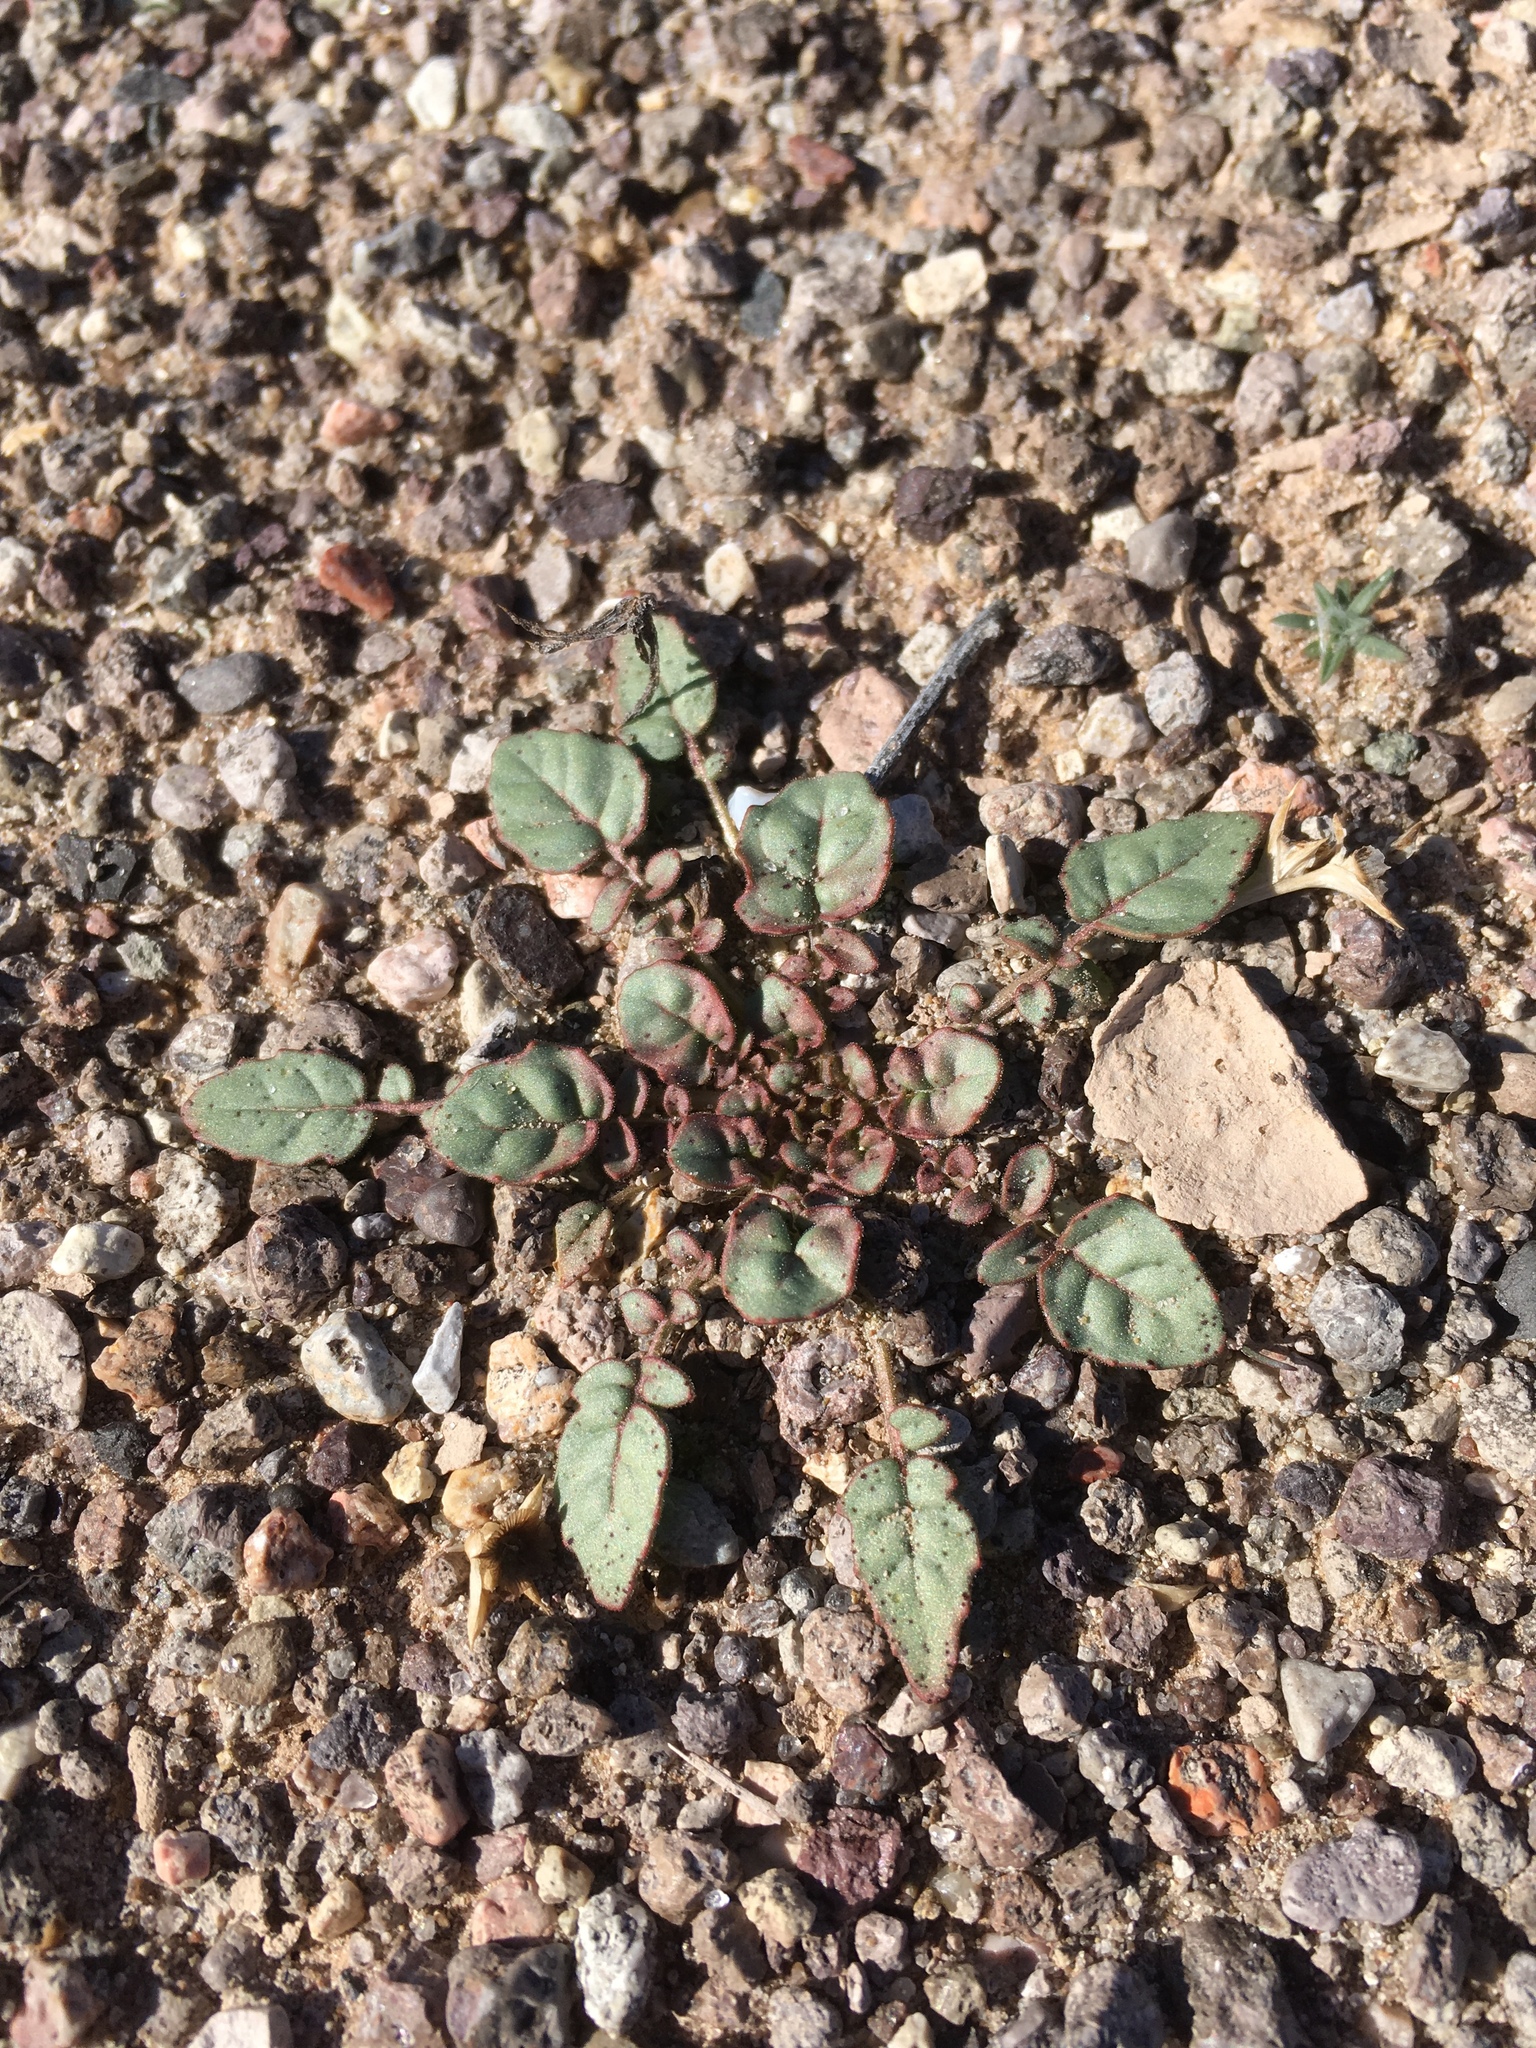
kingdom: Plantae
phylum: Tracheophyta
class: Magnoliopsida
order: Myrtales
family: Onagraceae
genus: Chylismia
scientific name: Chylismia claviformis
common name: Browneyes
